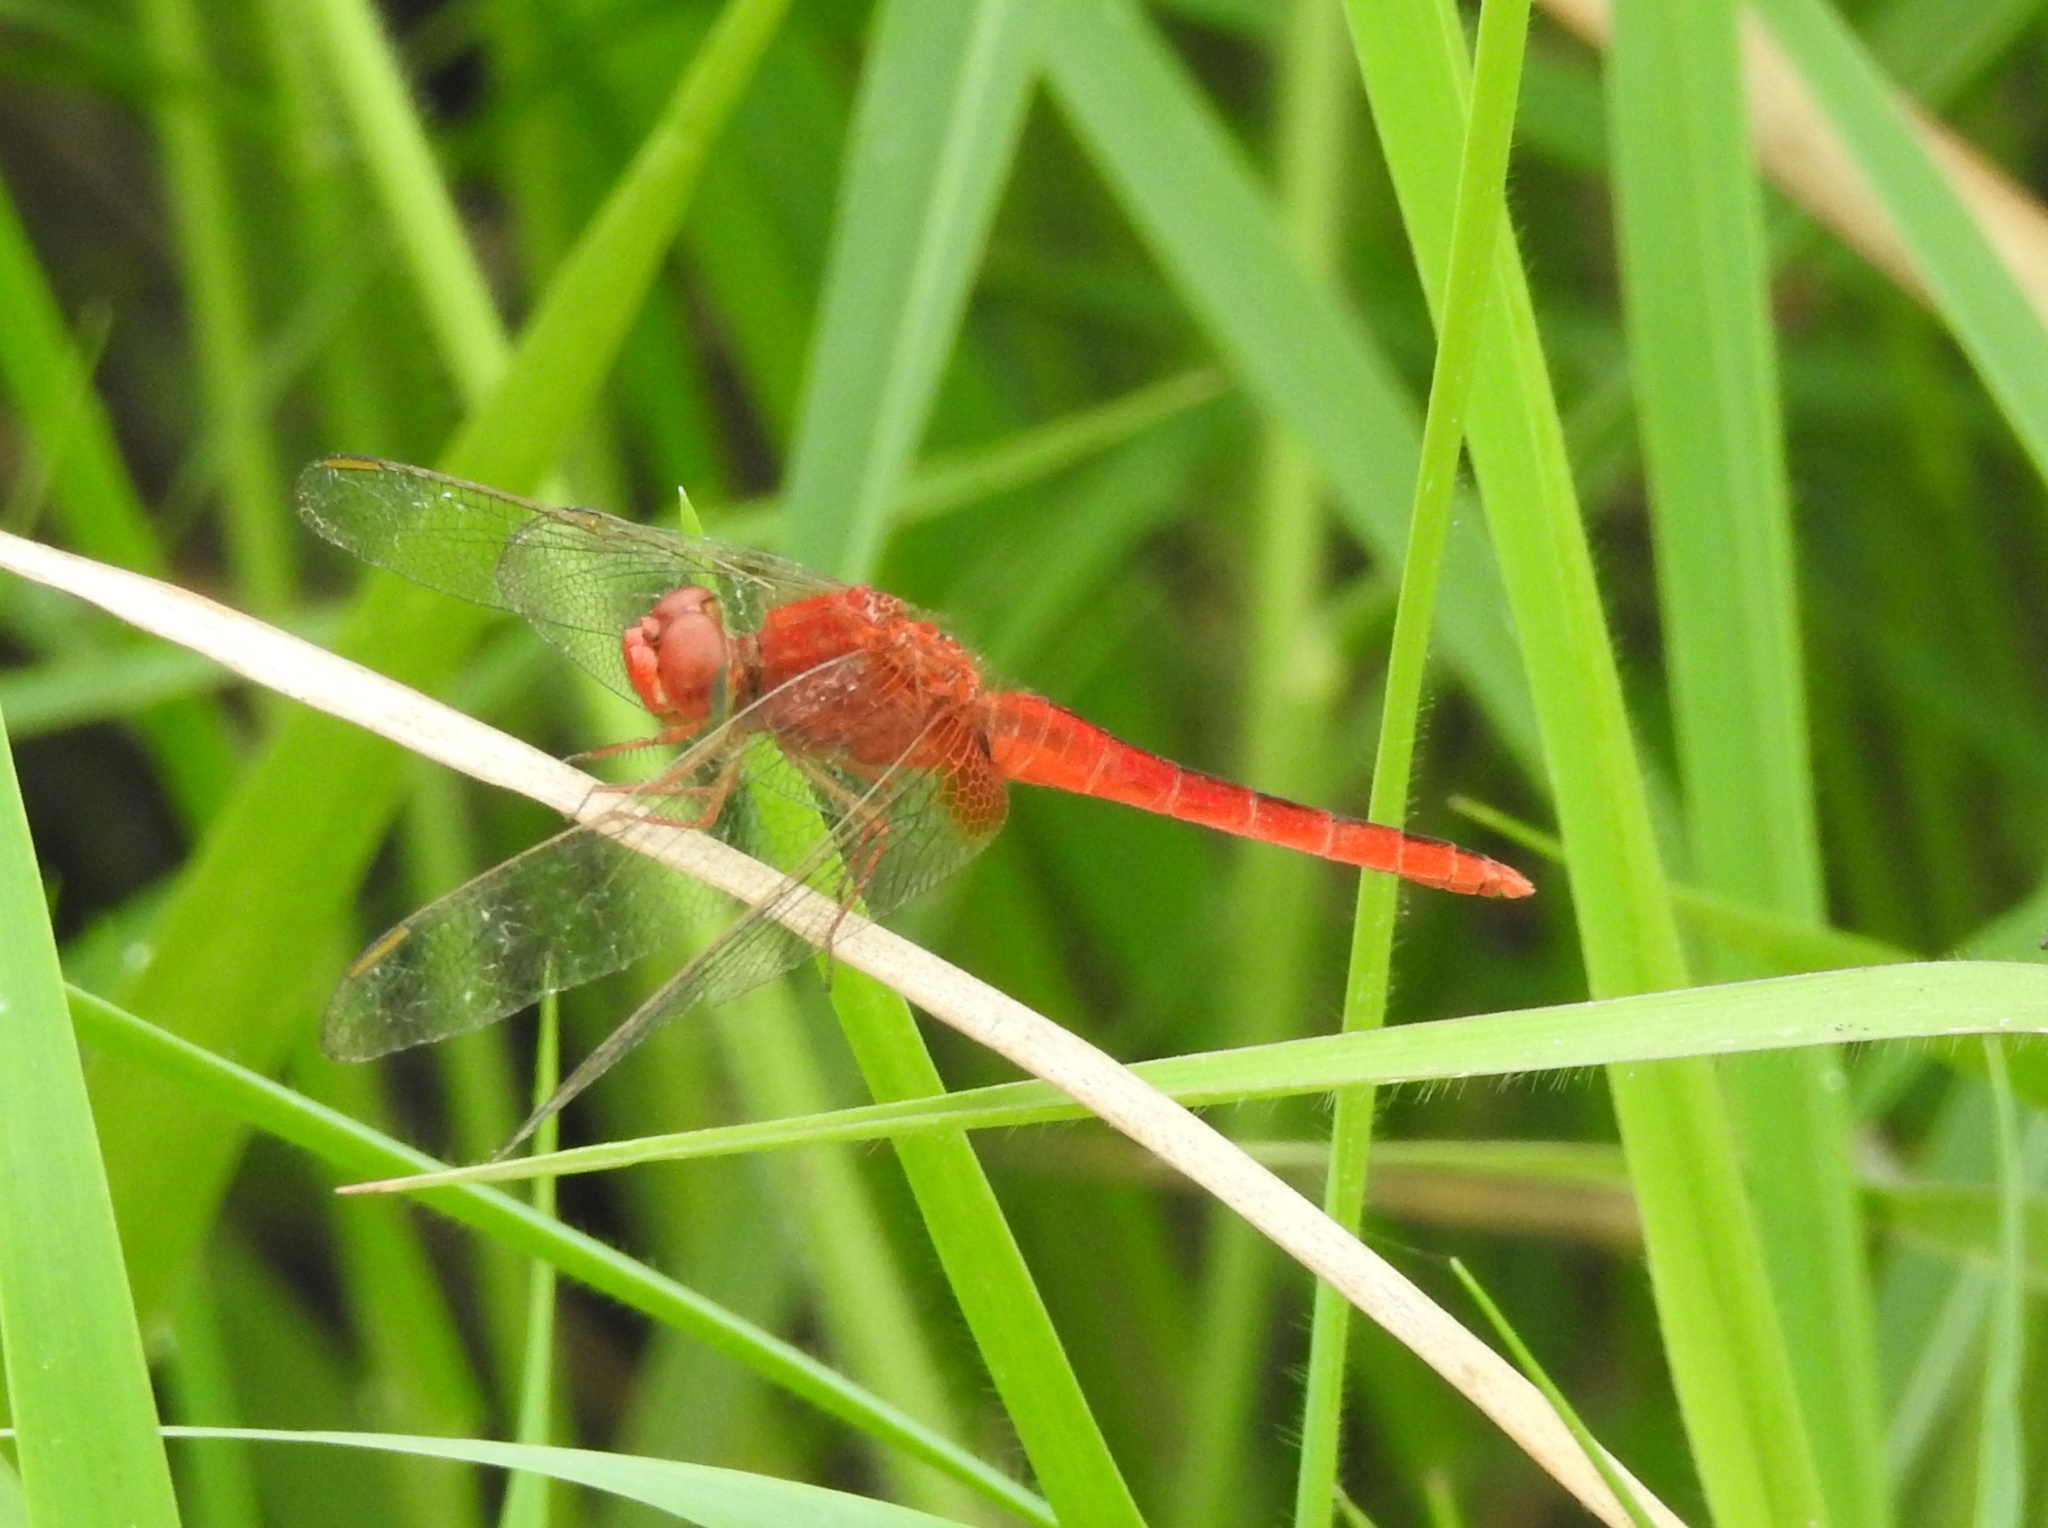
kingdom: Animalia
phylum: Arthropoda
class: Insecta
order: Odonata
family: Libellulidae
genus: Crocothemis
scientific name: Crocothemis servilia
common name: Scarlet skimmer
